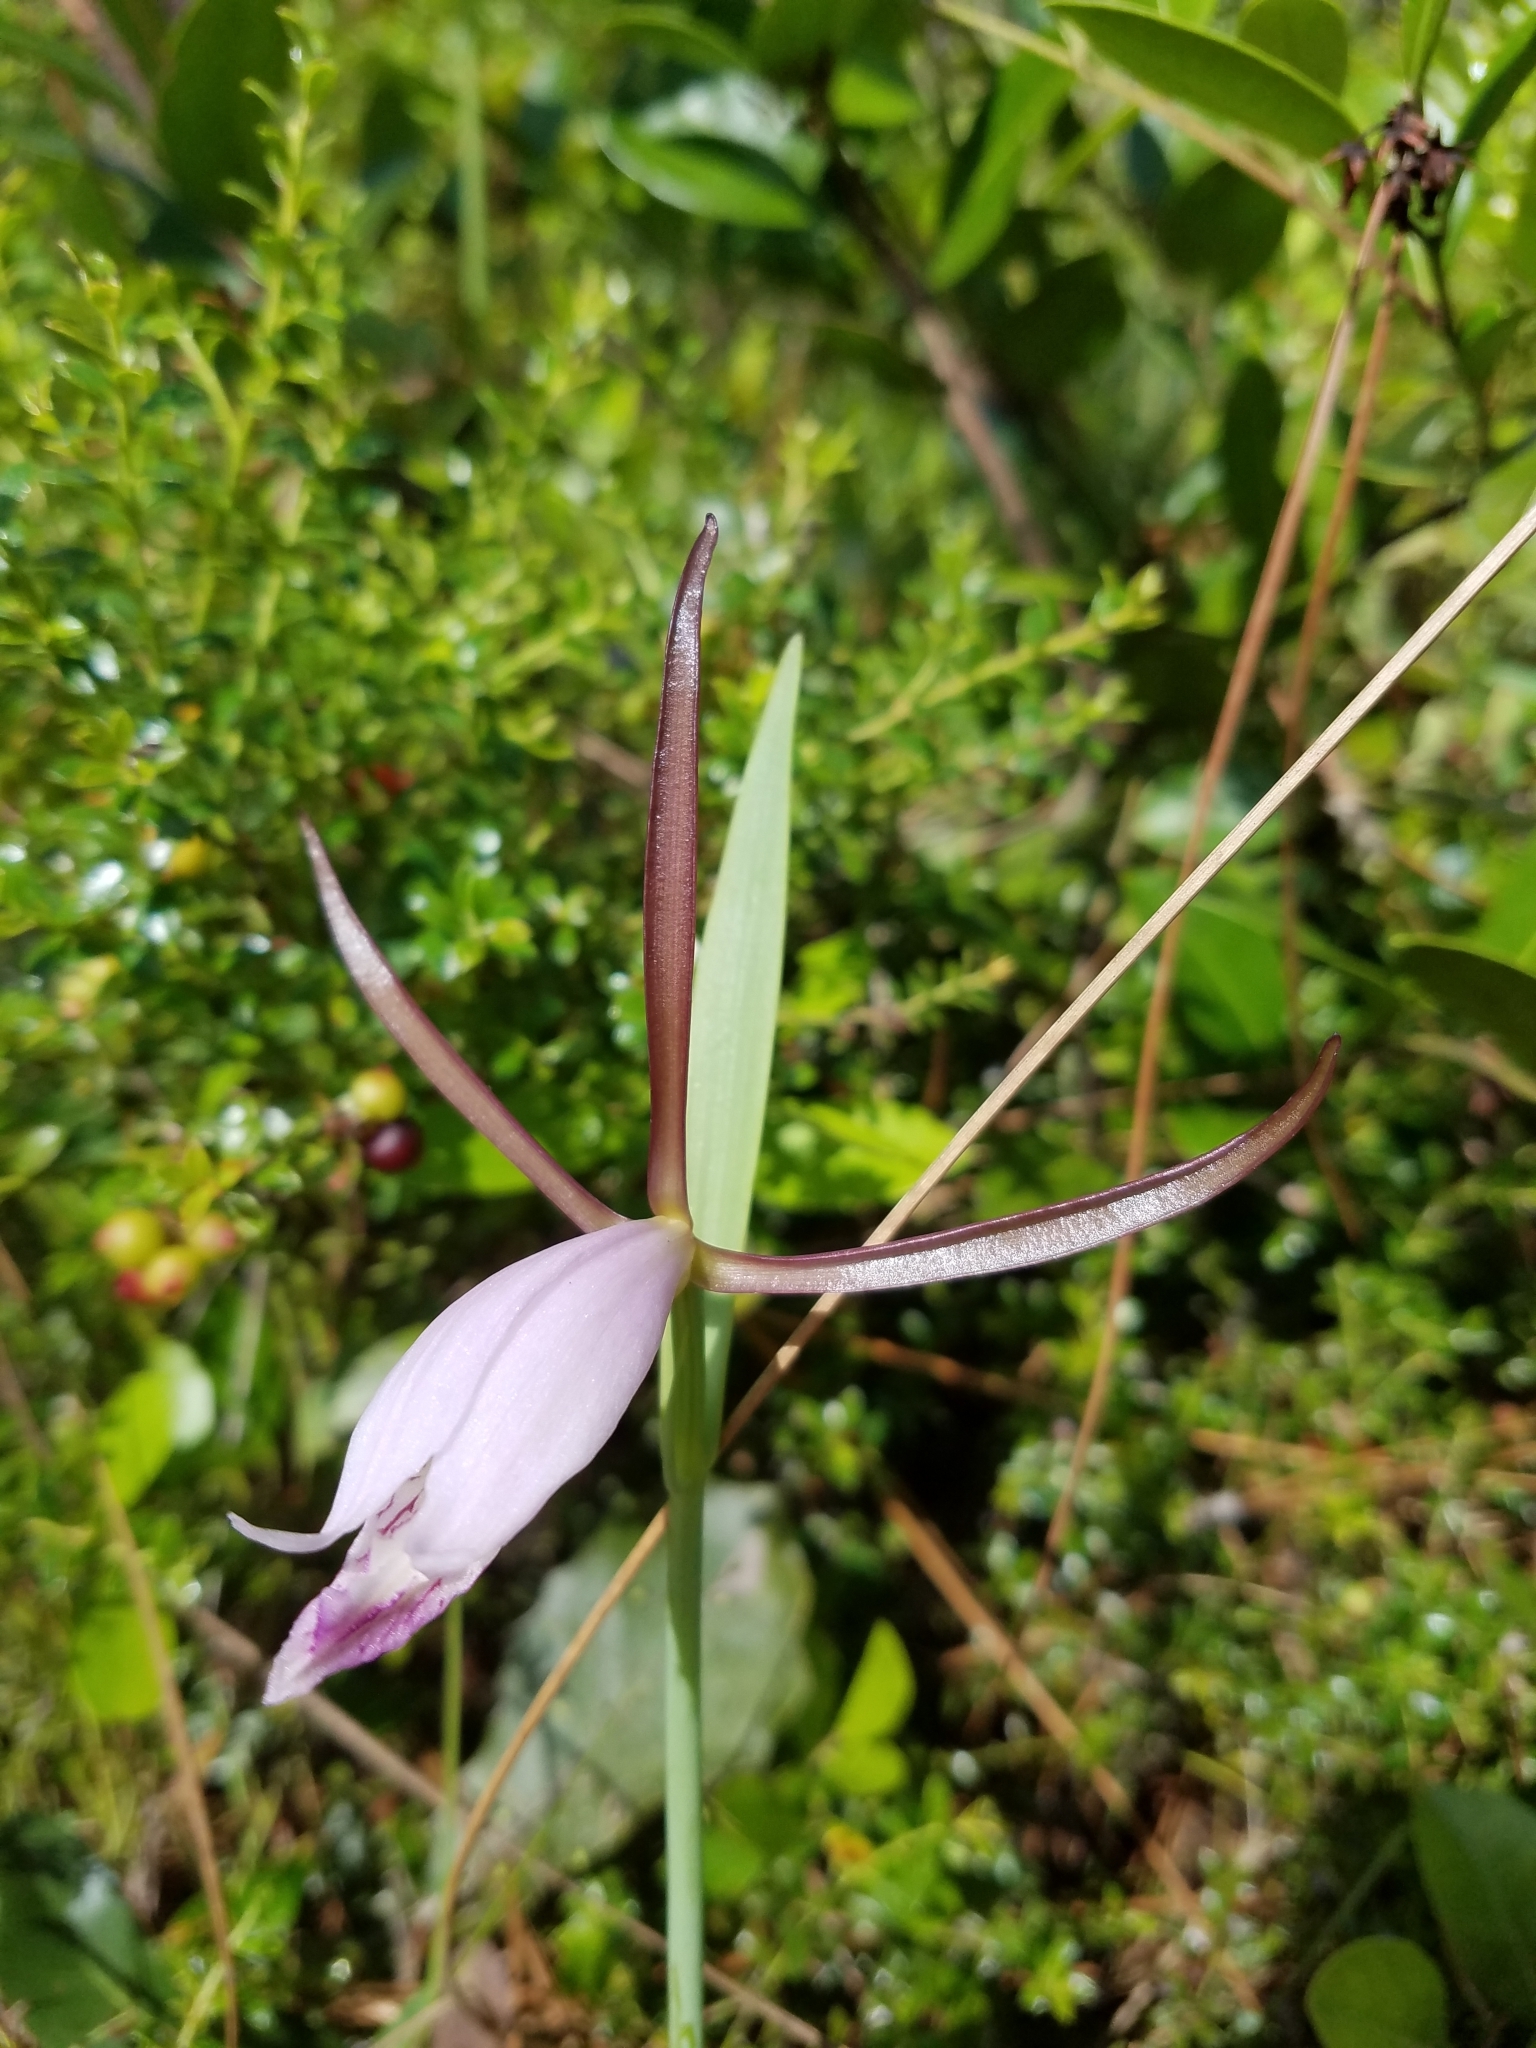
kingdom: Plantae
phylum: Tracheophyta
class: Liliopsida
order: Asparagales
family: Orchidaceae
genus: Cleistesiopsis
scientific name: Cleistesiopsis divaricata
